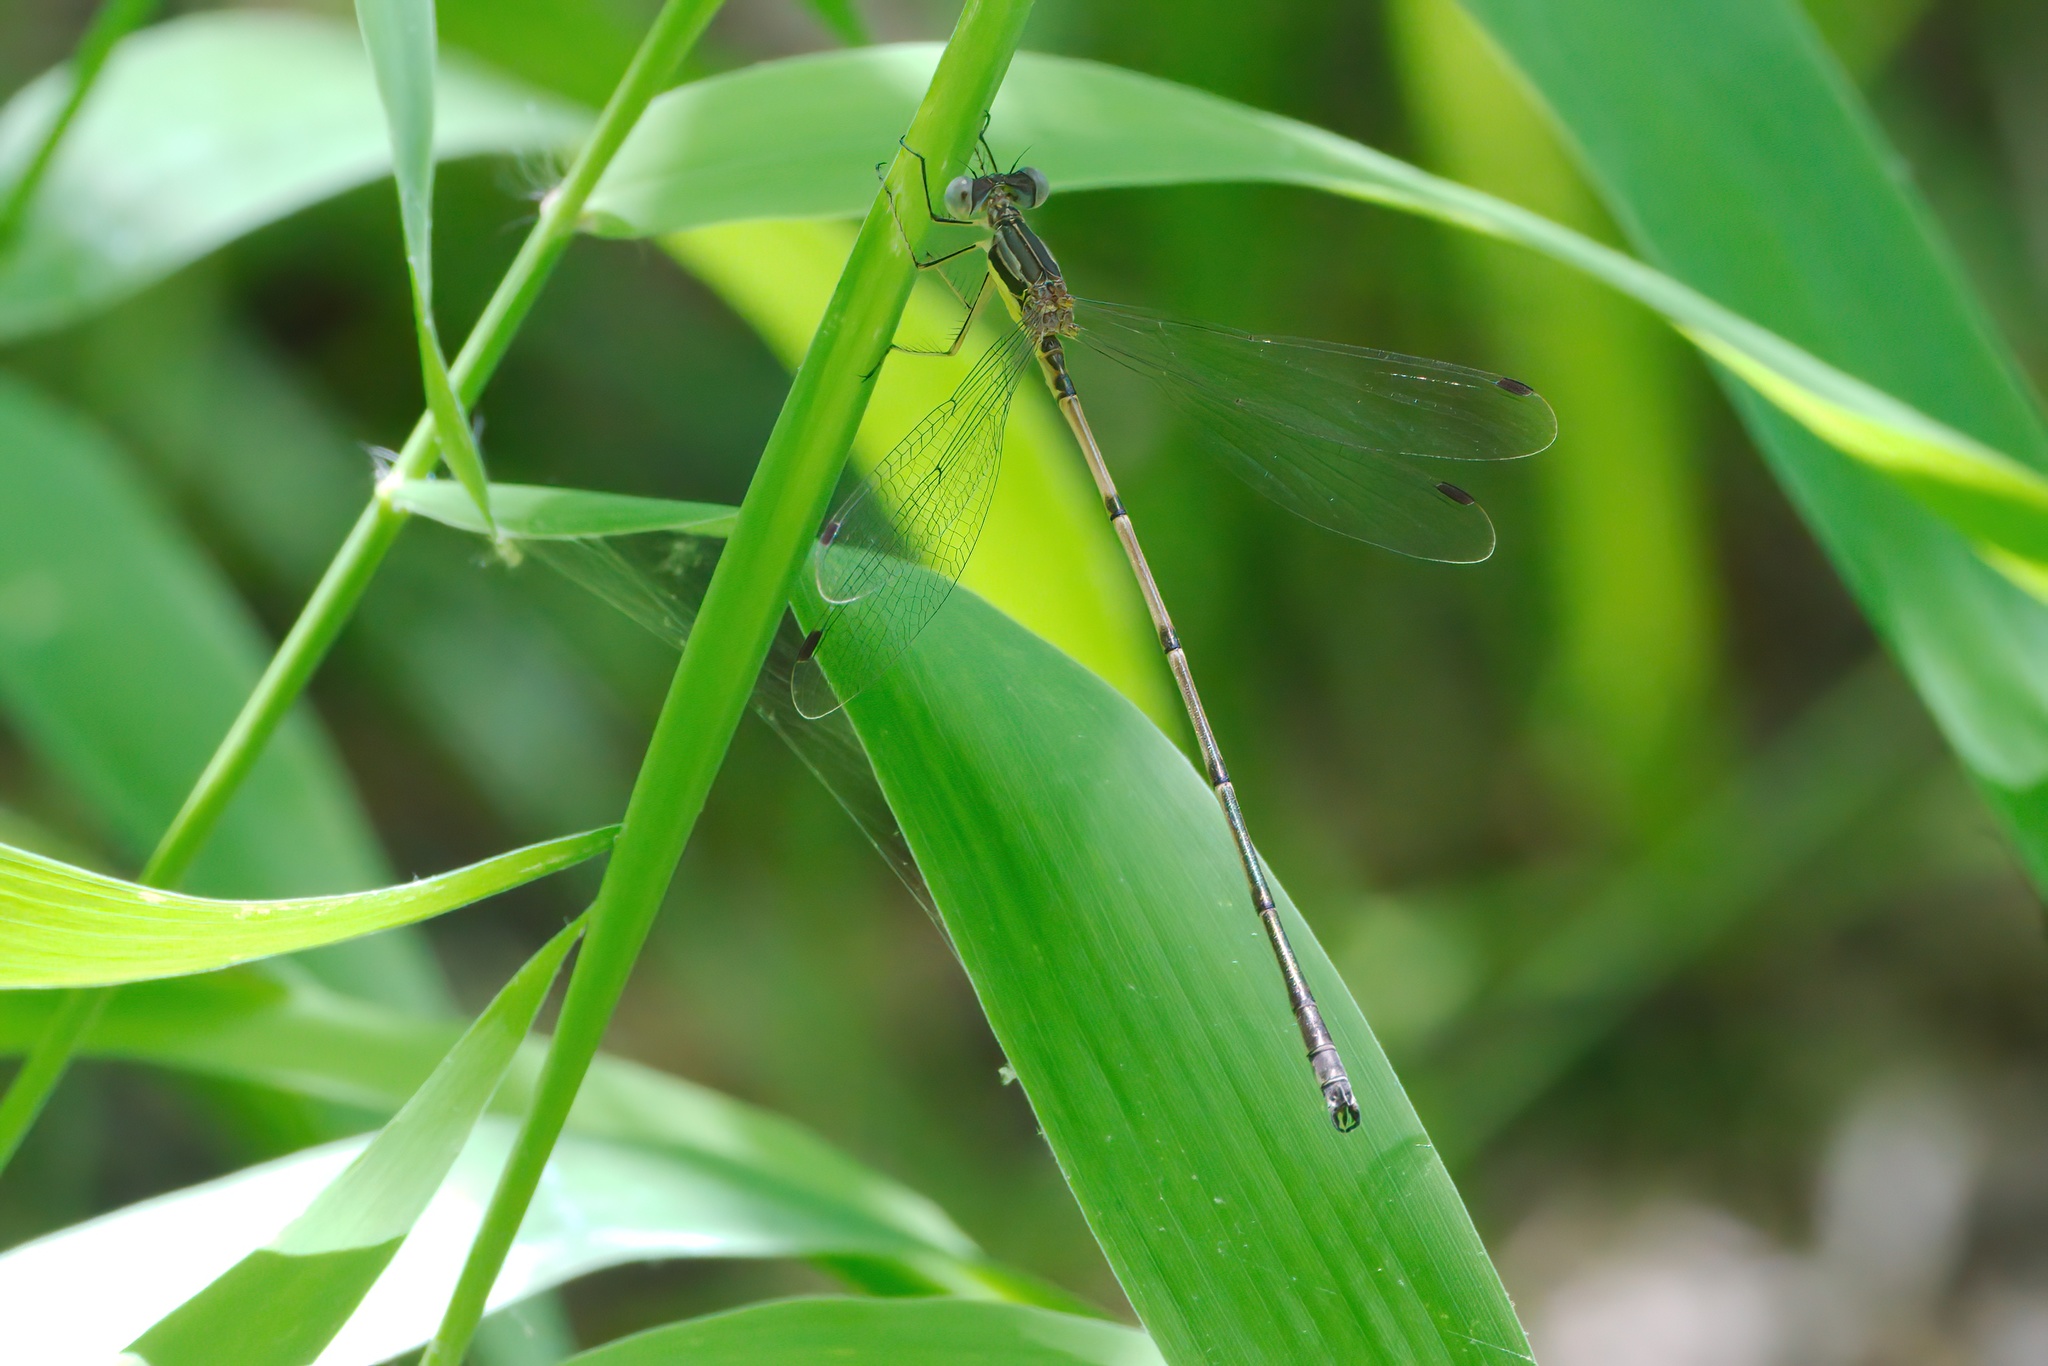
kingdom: Animalia
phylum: Arthropoda
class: Insecta
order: Odonata
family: Lestidae
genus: Lestes
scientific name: Lestes rectangularis
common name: Slender spreadwing
